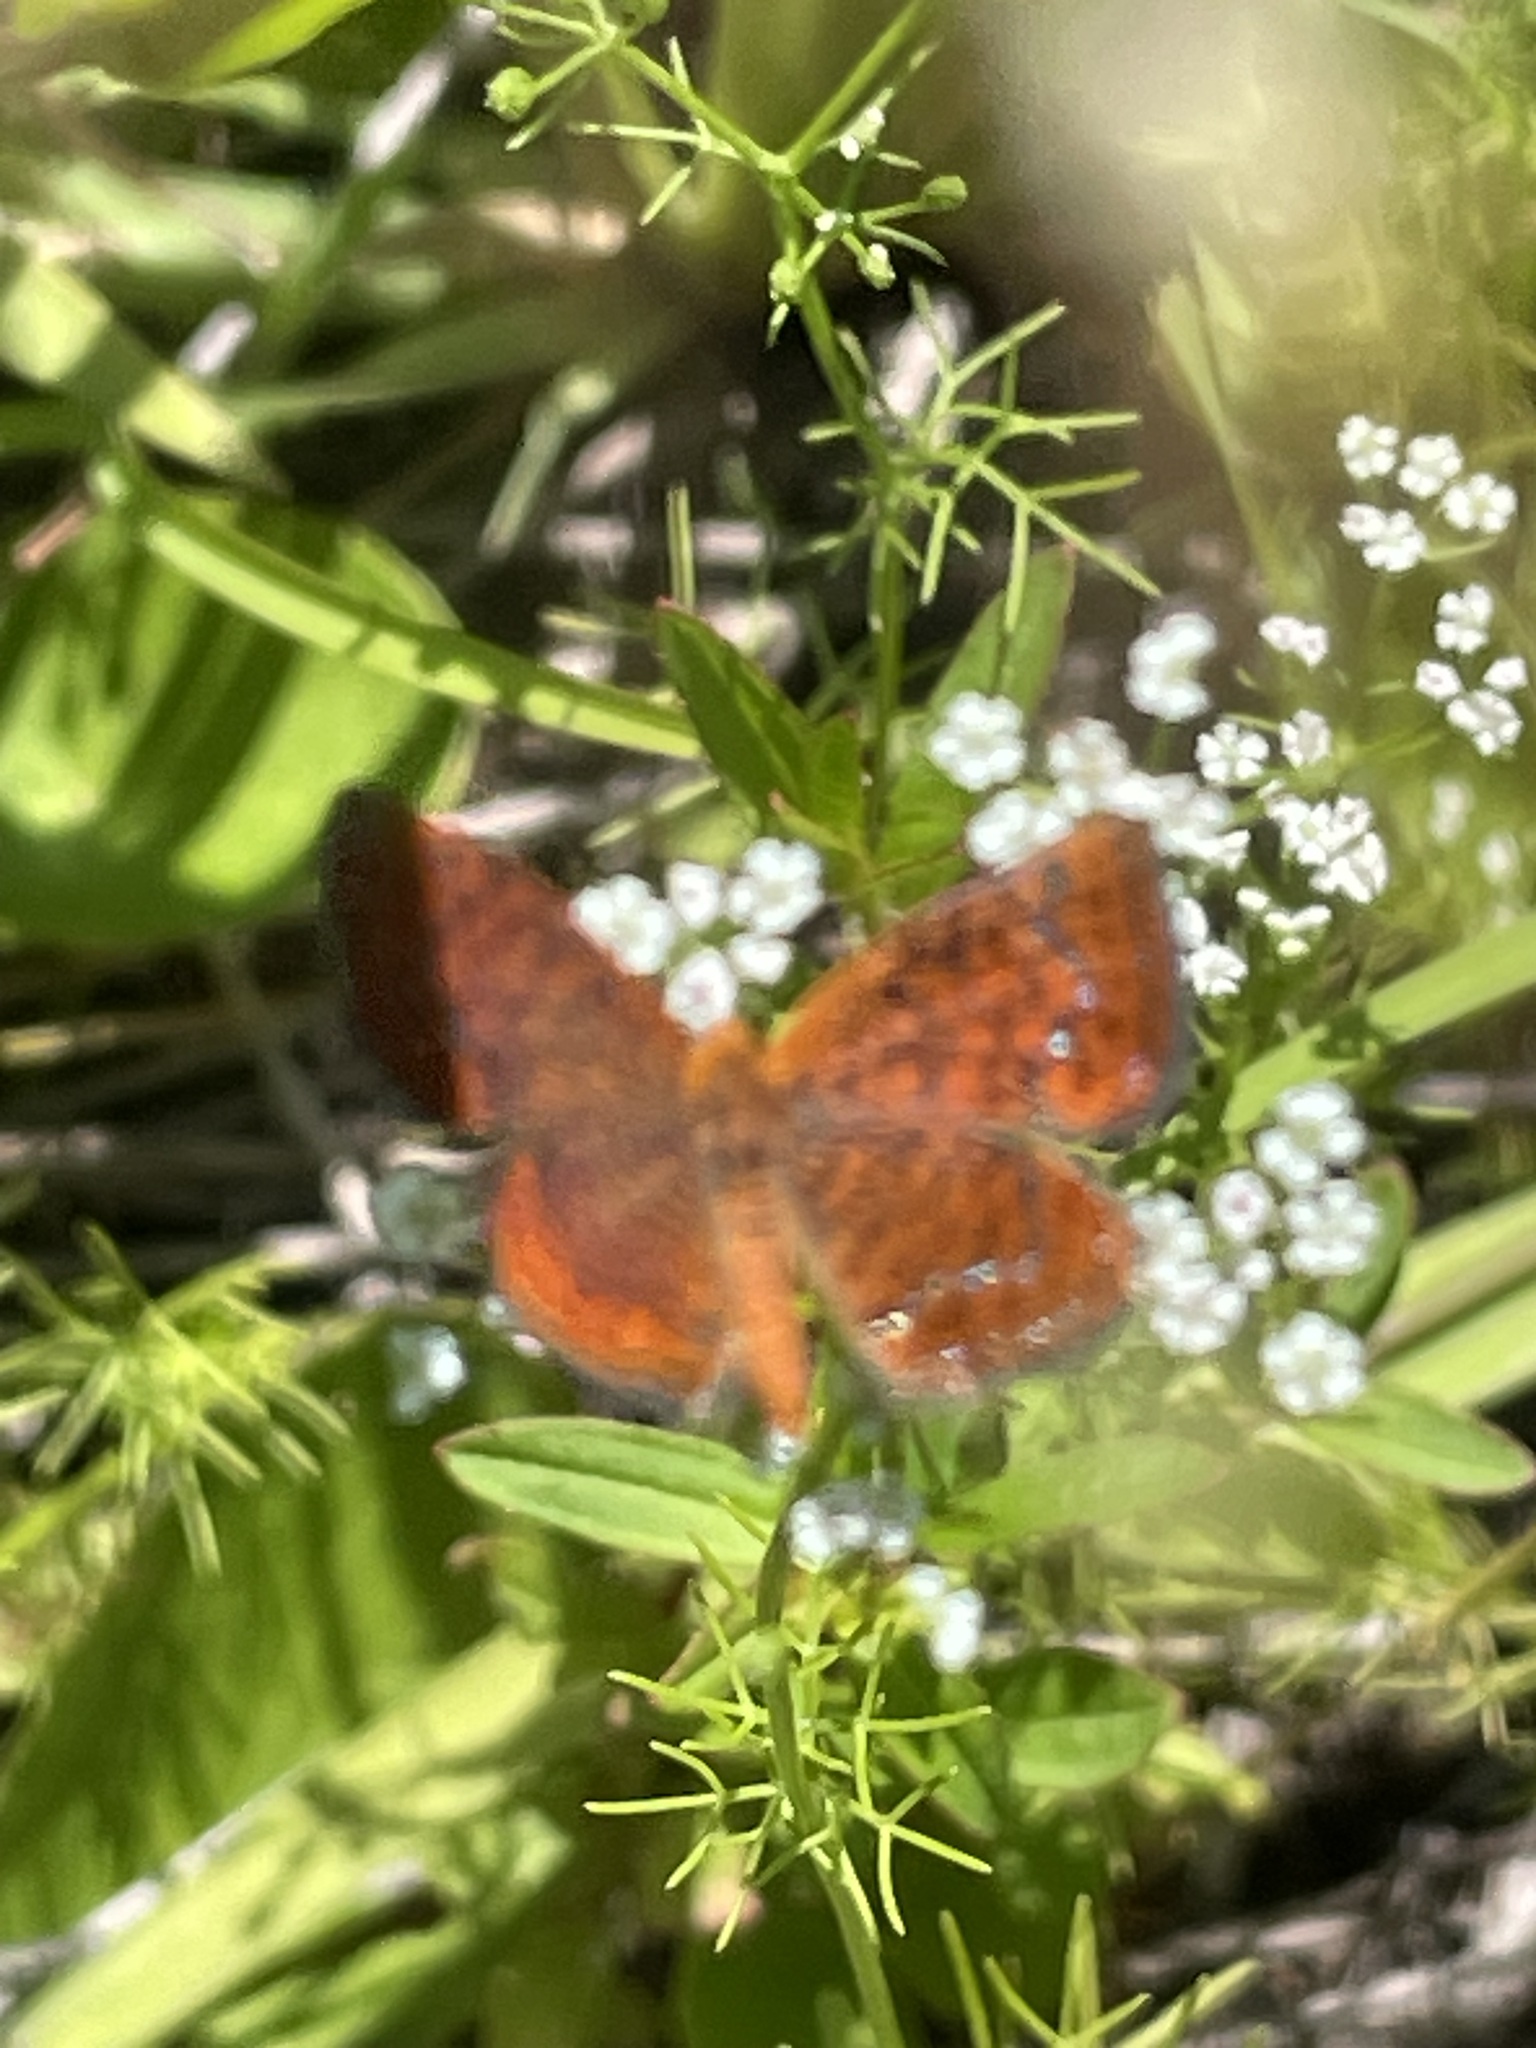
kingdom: Animalia
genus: Calephelis
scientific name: Calephelis virginiensis
